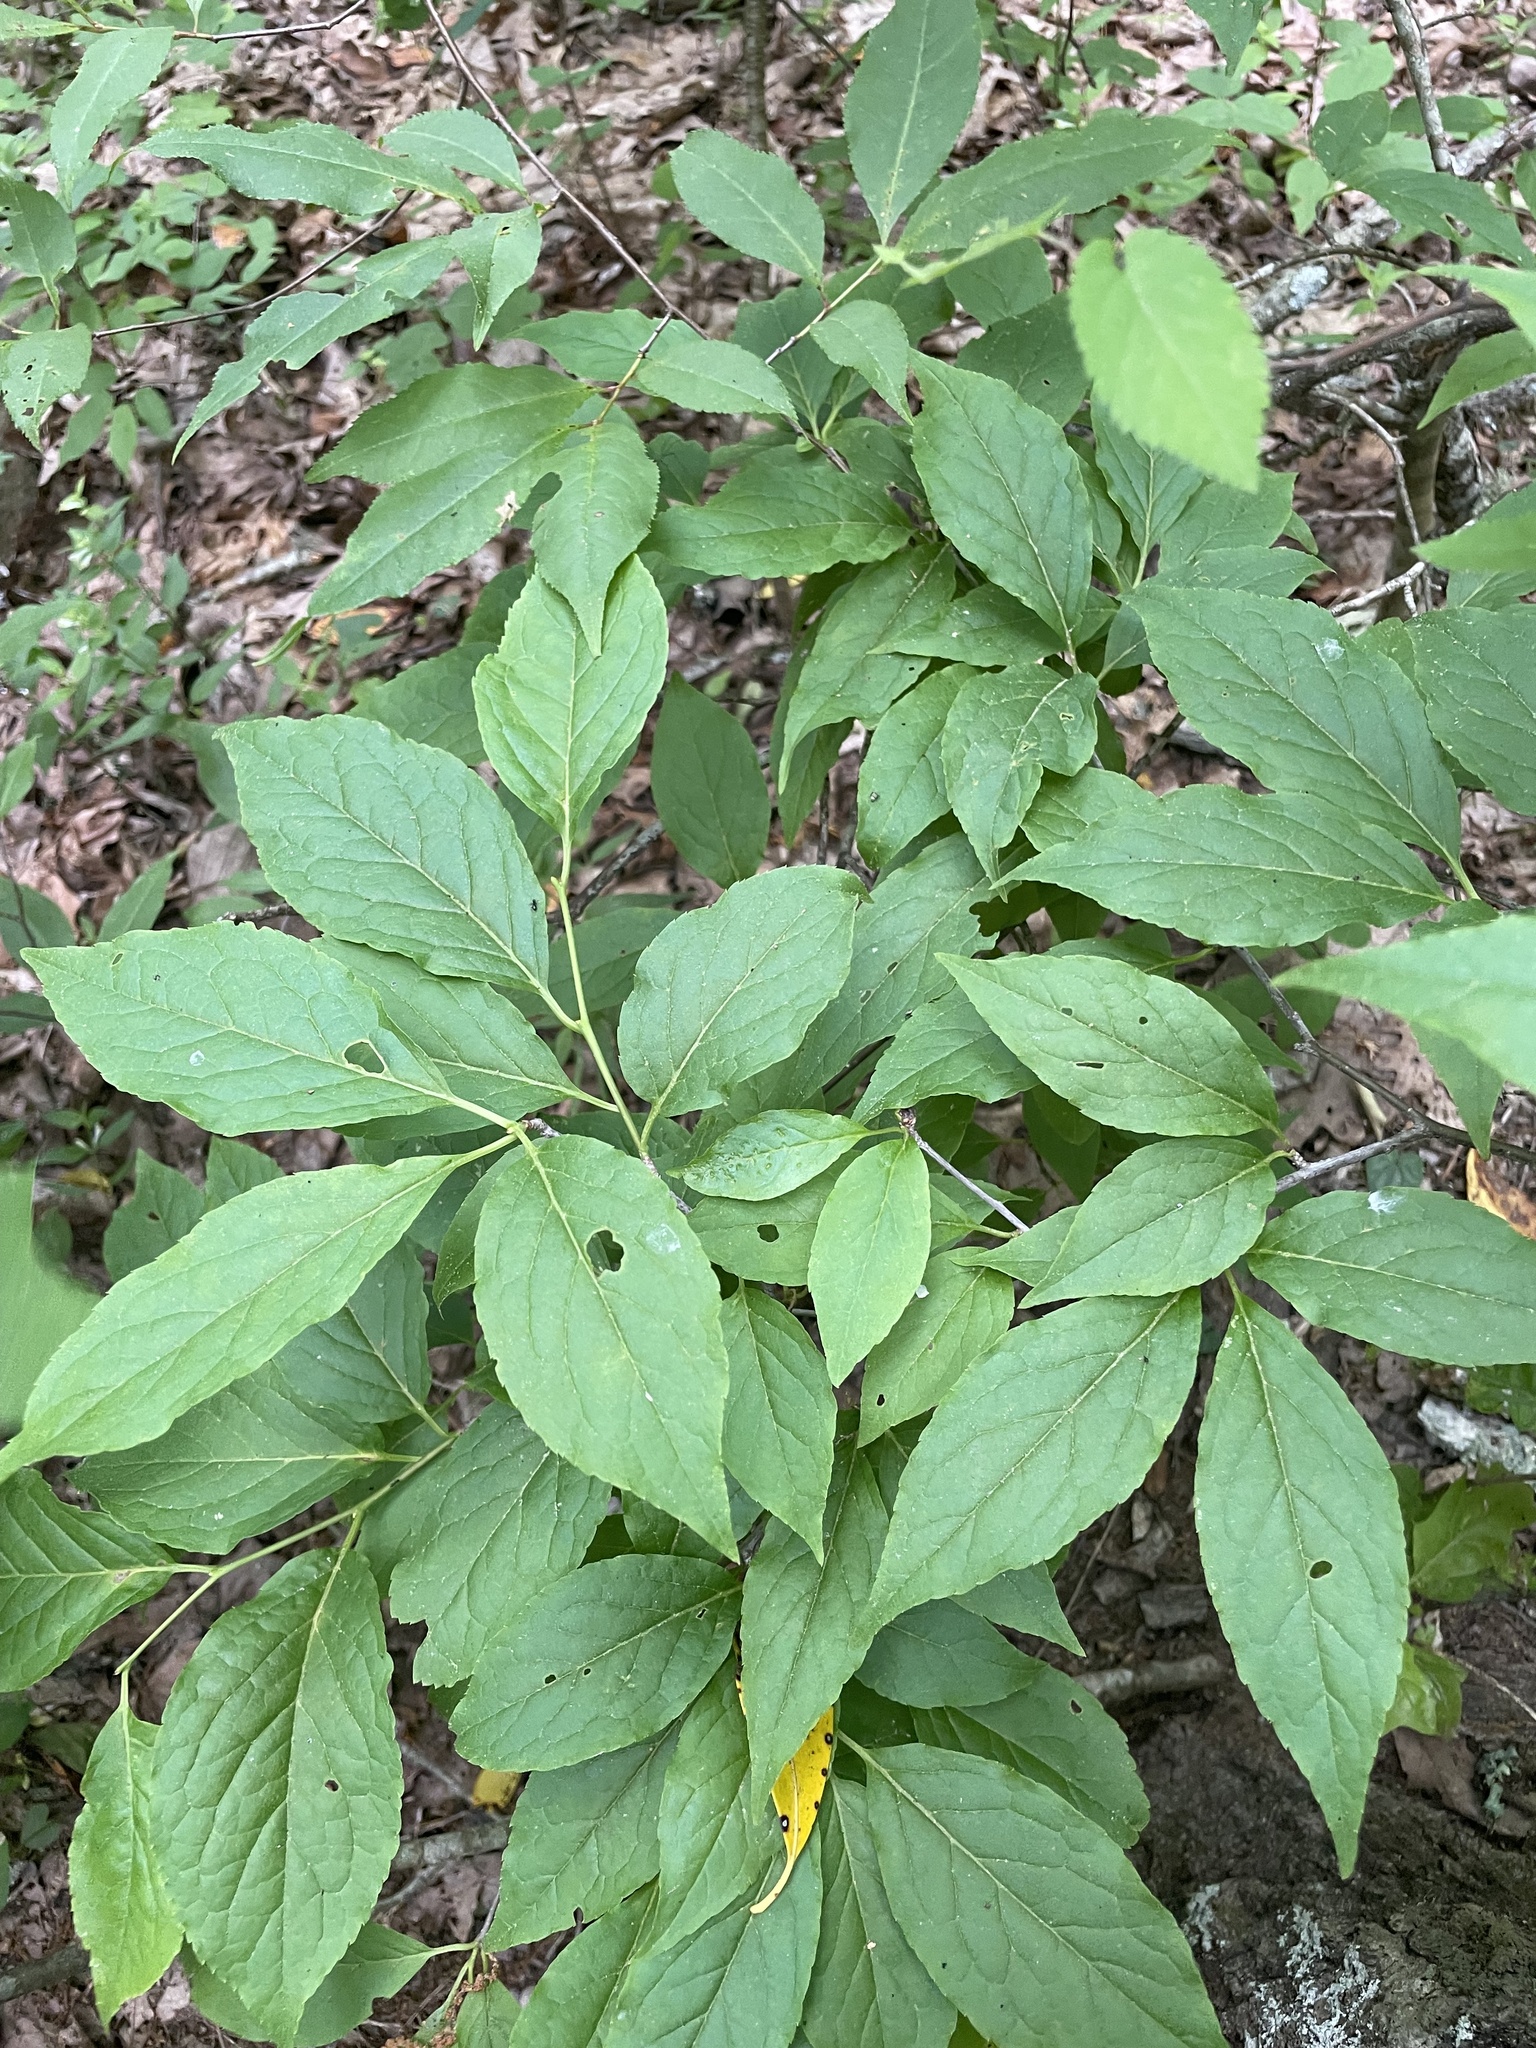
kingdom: Plantae
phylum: Tracheophyta
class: Magnoliopsida
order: Santalales
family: Cervantesiaceae
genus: Pyrularia
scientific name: Pyrularia pubera
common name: Oilnut
